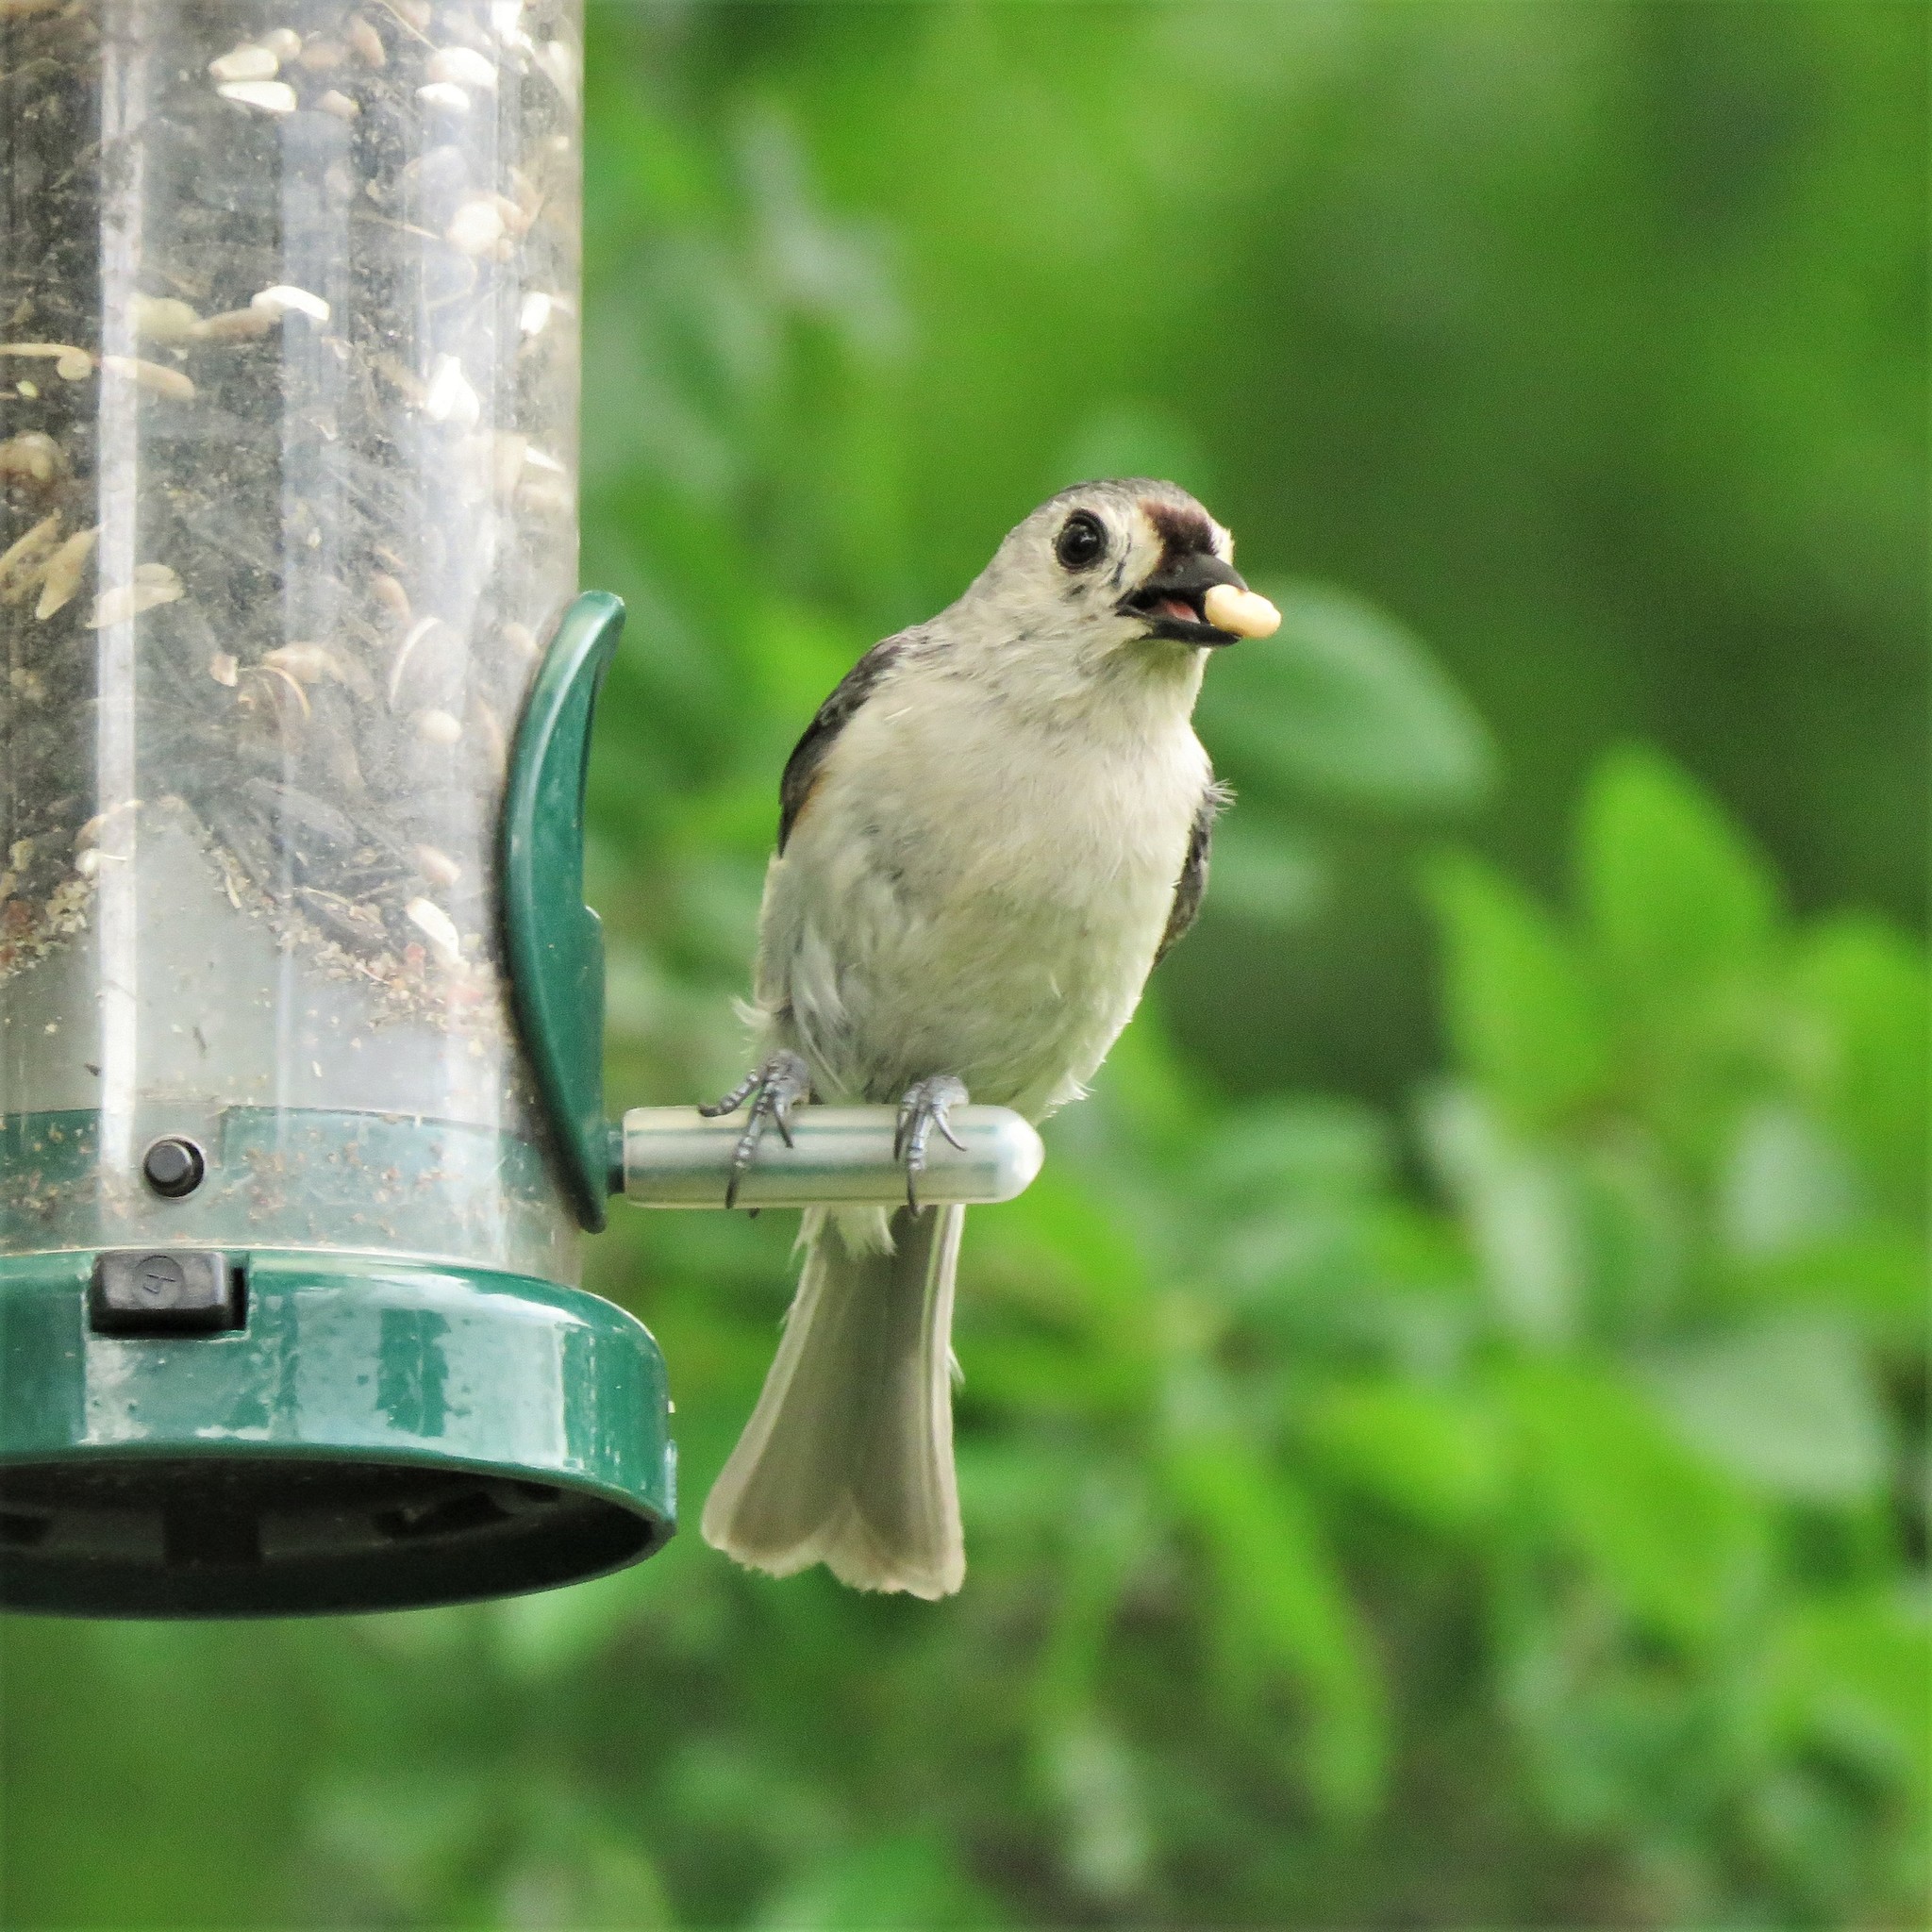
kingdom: Animalia
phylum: Chordata
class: Aves
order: Passeriformes
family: Paridae
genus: Baeolophus
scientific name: Baeolophus bicolor
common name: Tufted titmouse
